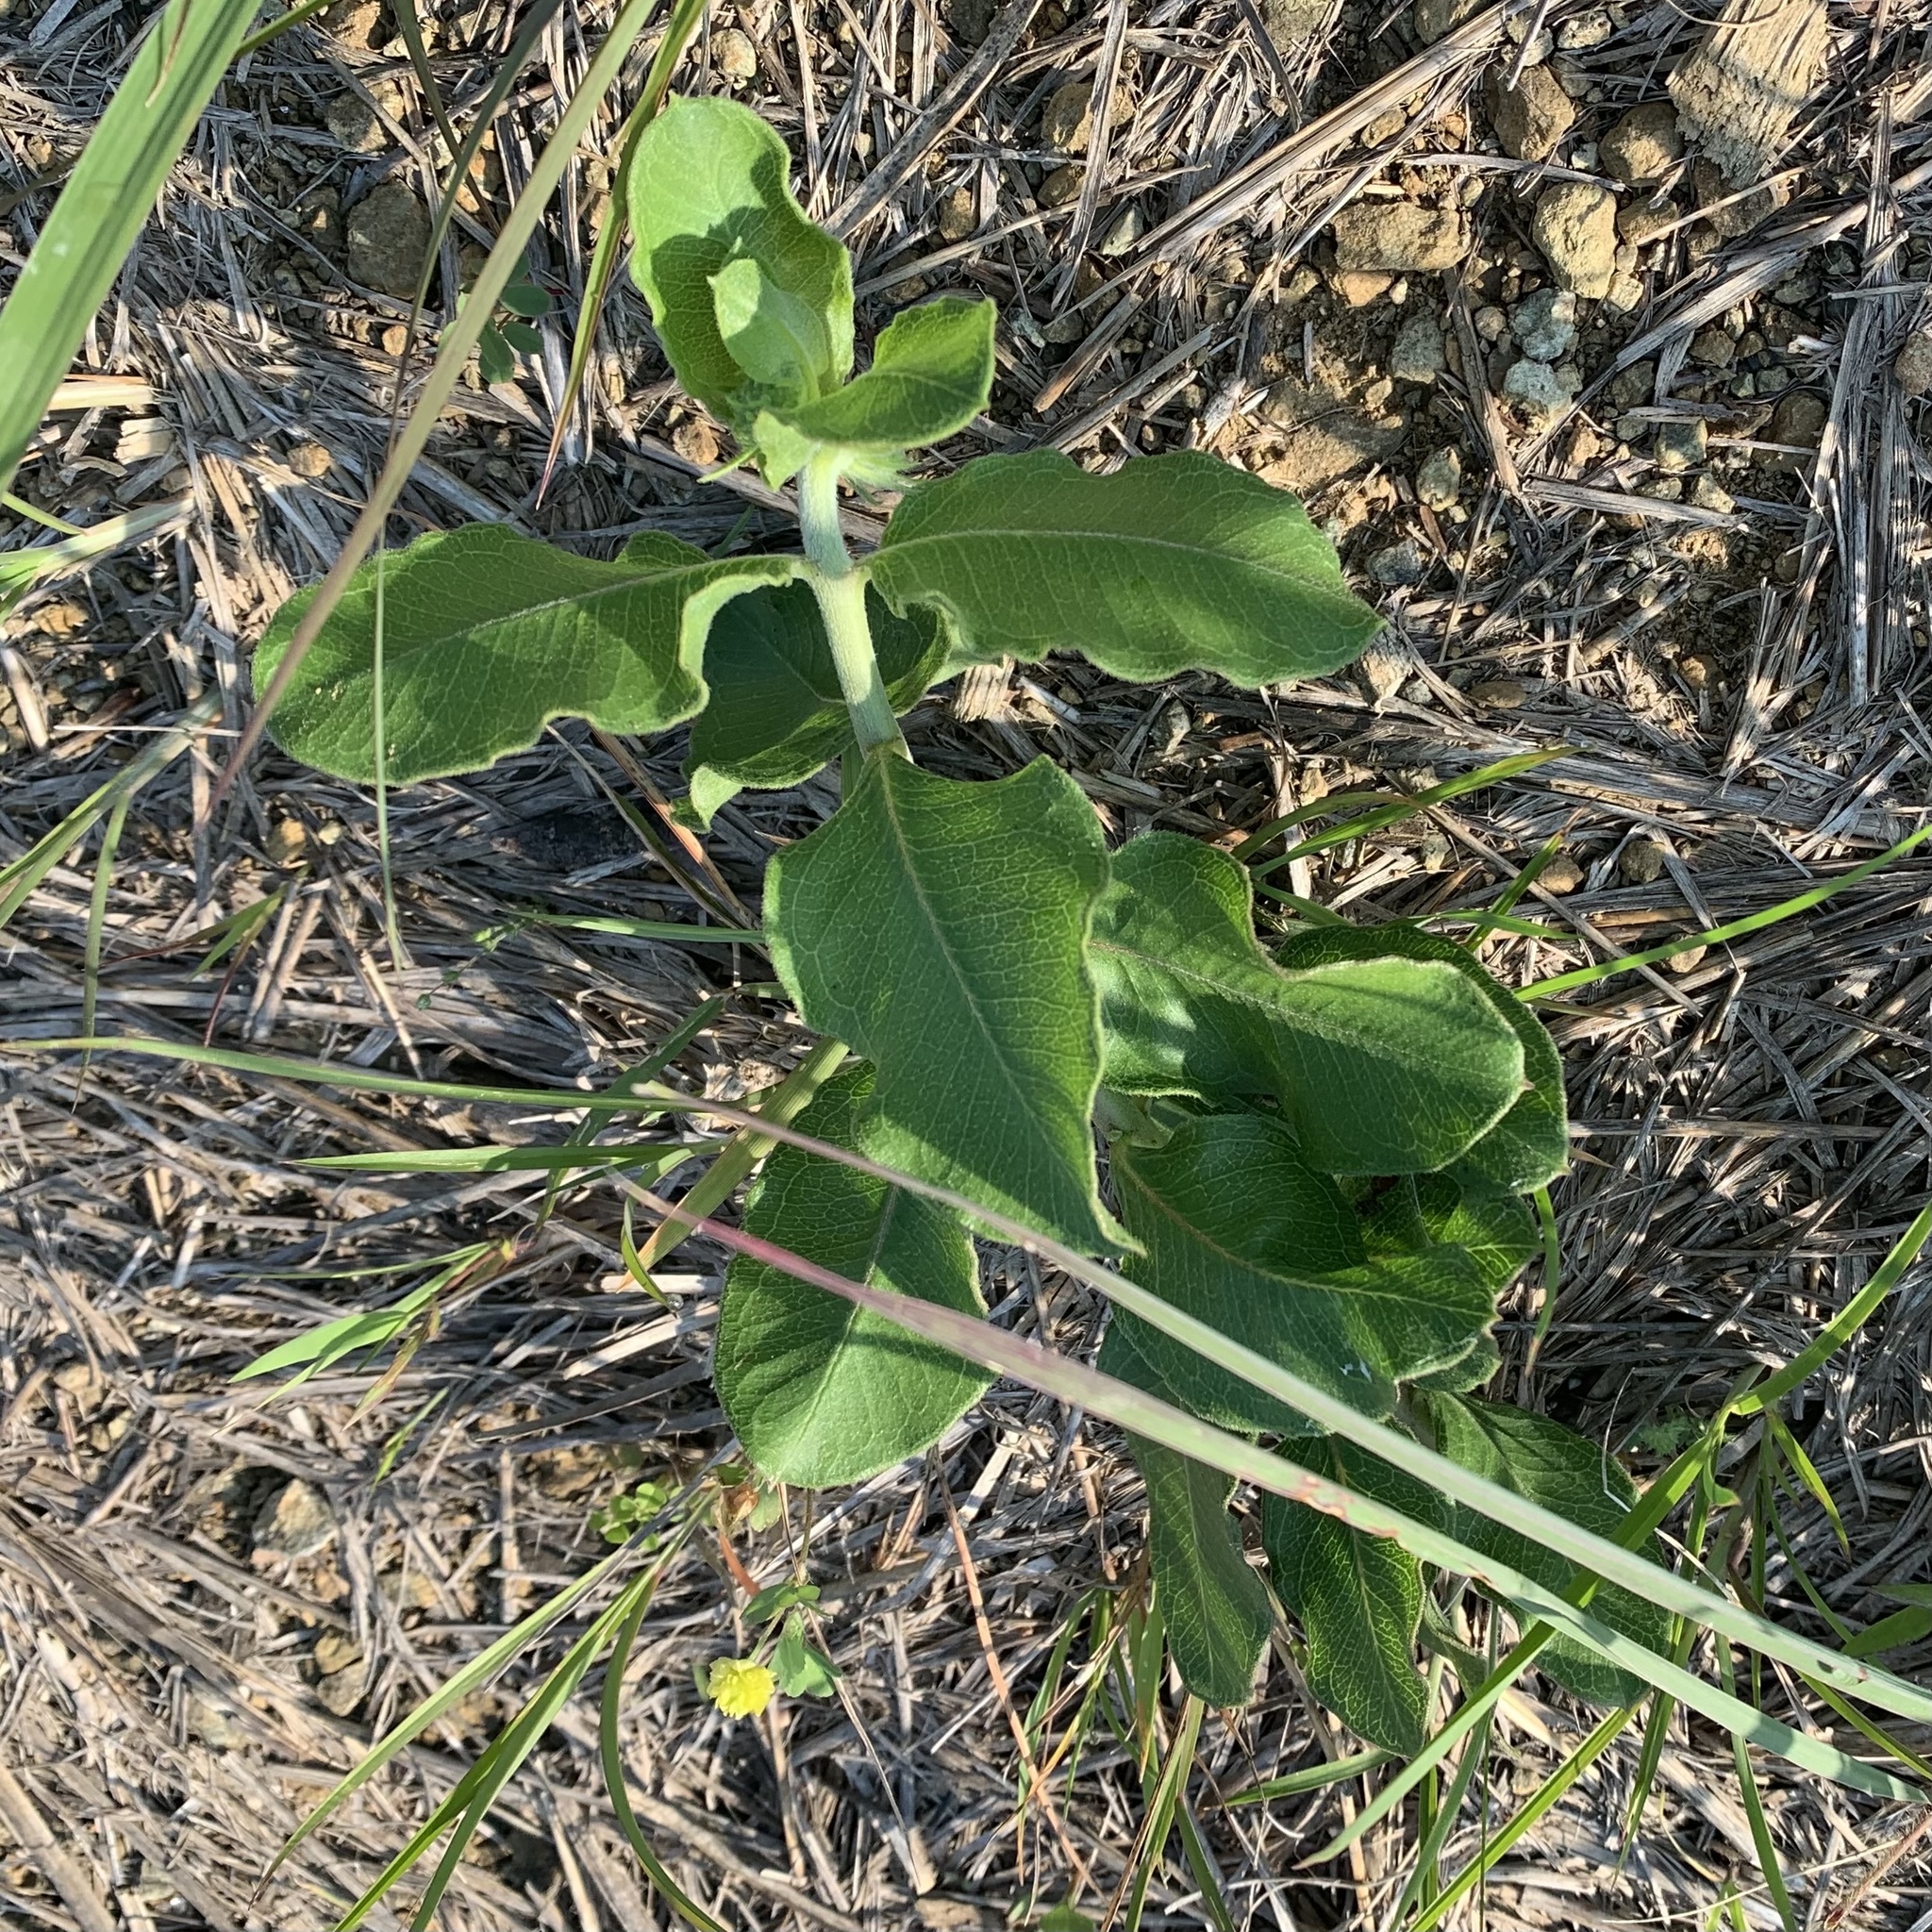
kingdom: Plantae
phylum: Tracheophyta
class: Magnoliopsida
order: Gentianales
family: Apocynaceae
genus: Asclepias
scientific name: Asclepias viridiflora
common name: Green comet milkweed
